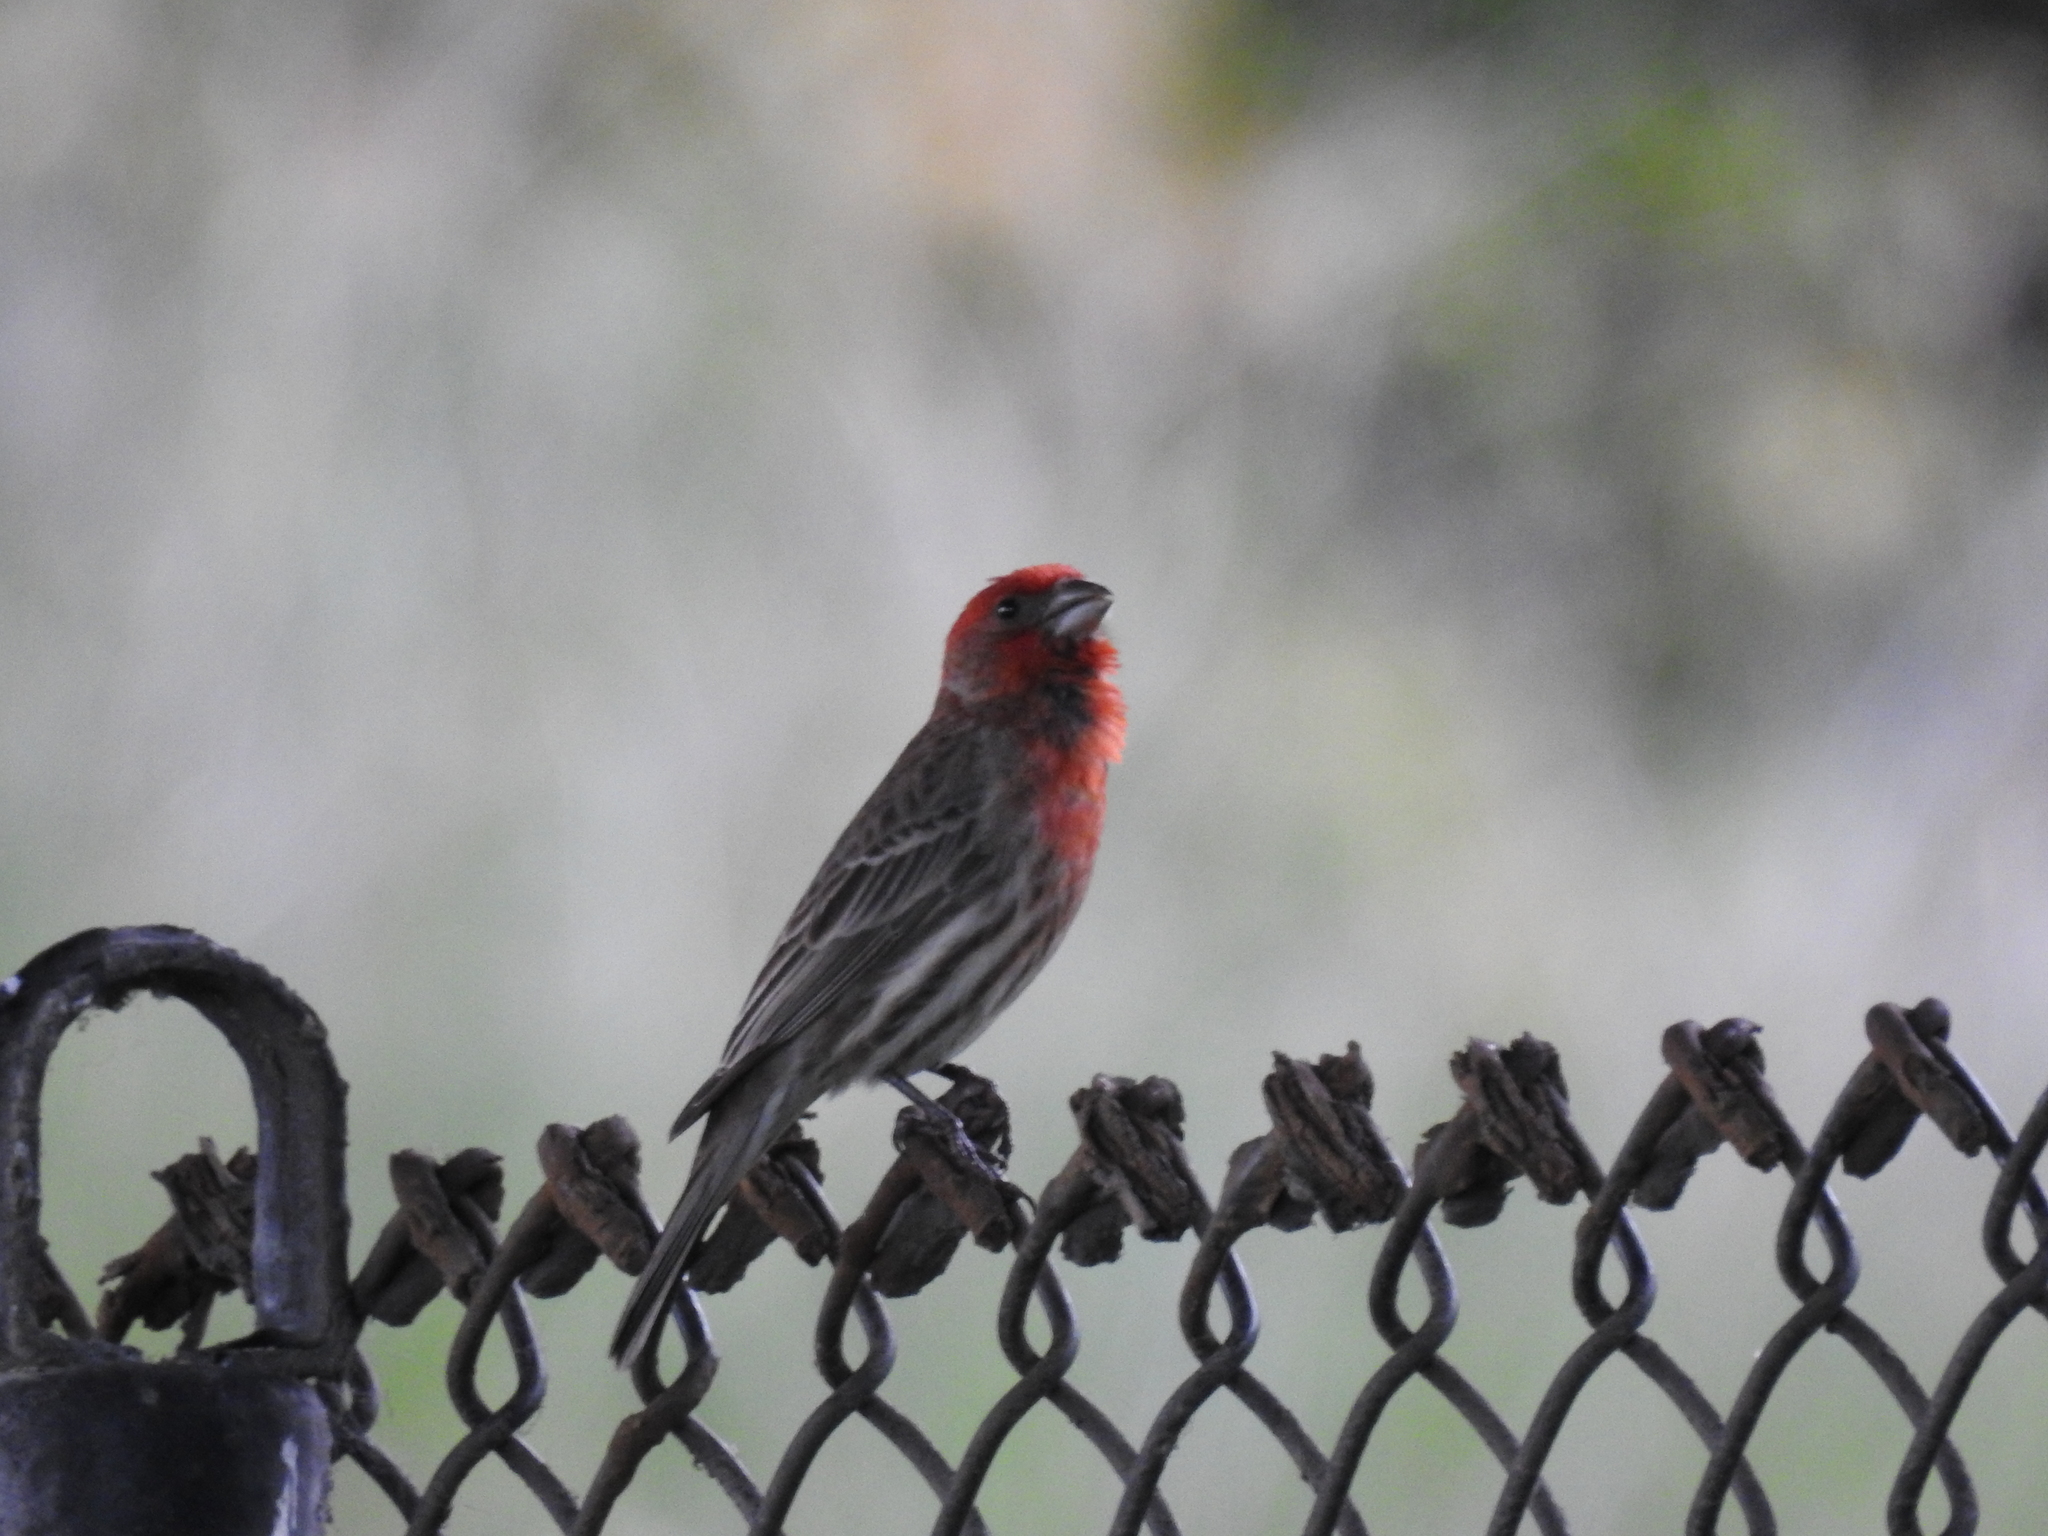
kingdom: Animalia
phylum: Chordata
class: Aves
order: Passeriformes
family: Fringillidae
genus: Haemorhous
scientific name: Haemorhous mexicanus
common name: House finch
